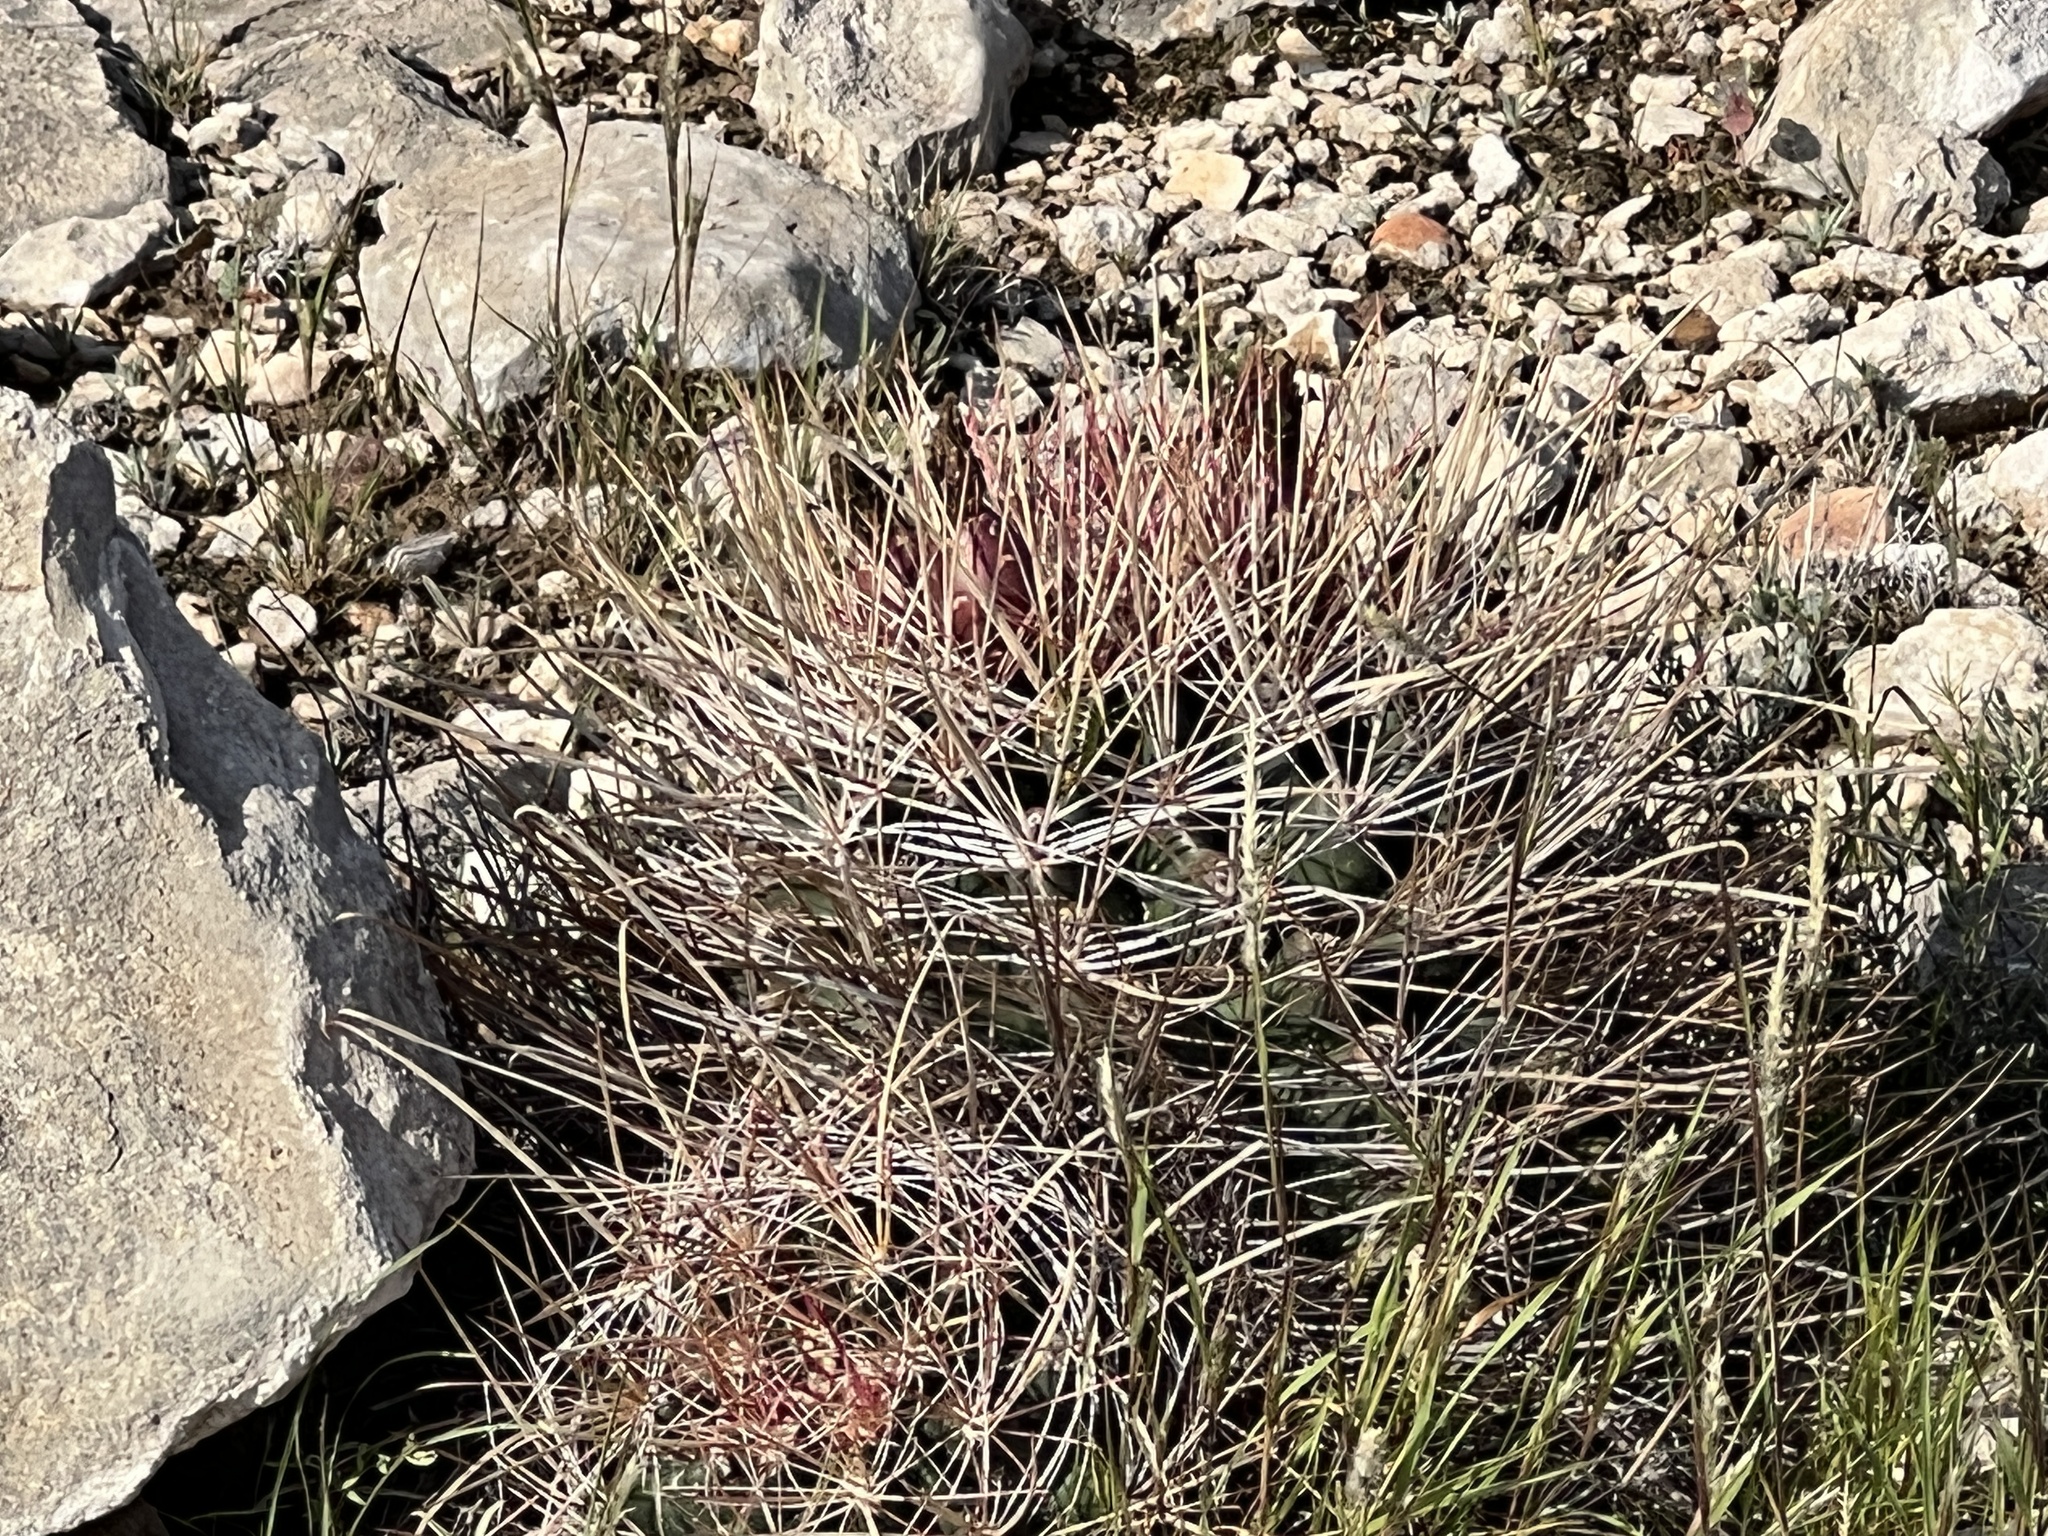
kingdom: Plantae
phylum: Tracheophyta
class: Magnoliopsida
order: Caryophyllales
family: Cactaceae
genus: Bisnaga
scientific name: Bisnaga hamatacantha
